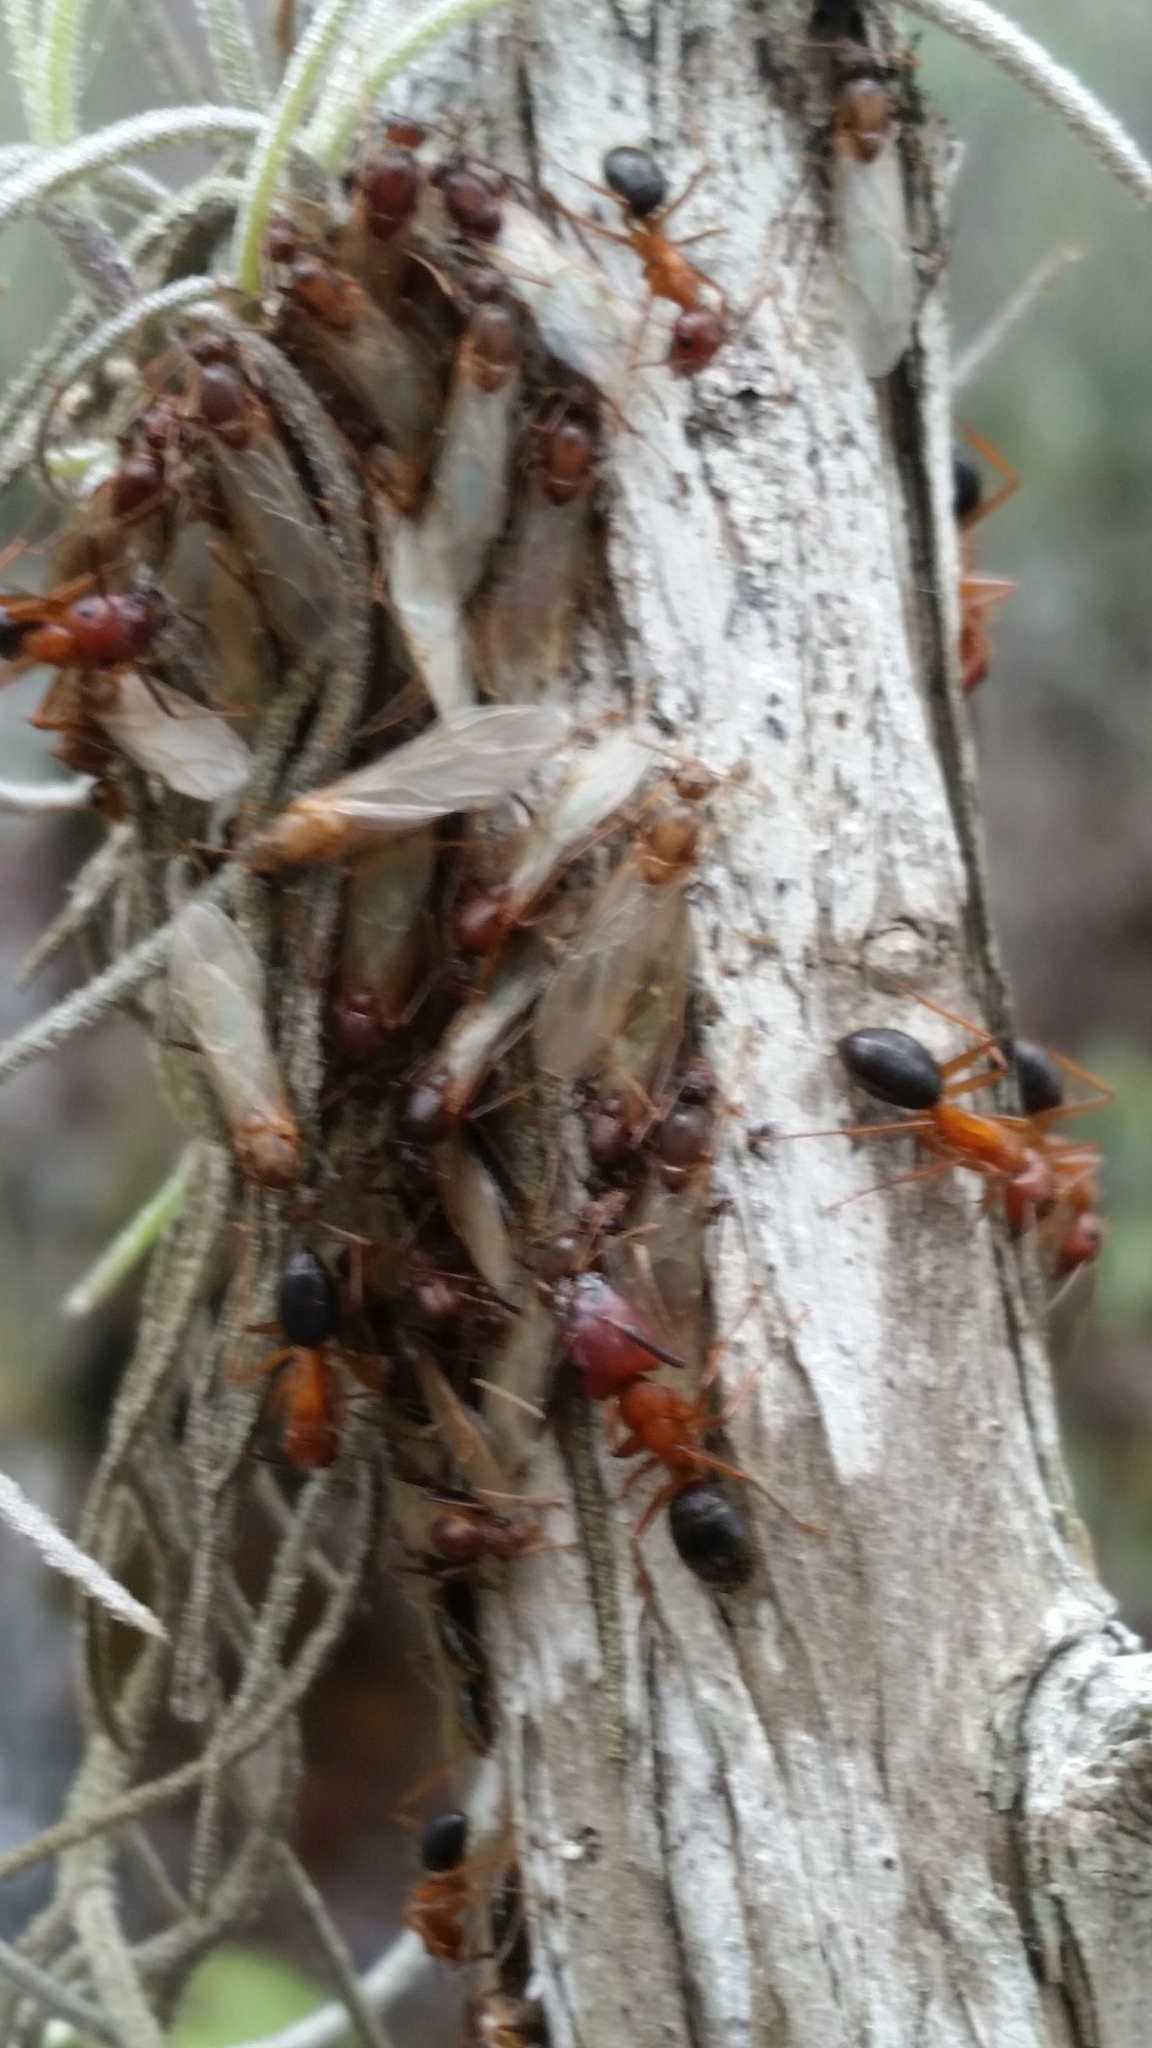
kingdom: Animalia
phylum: Arthropoda
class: Insecta
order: Hymenoptera
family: Formicidae
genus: Camponotus
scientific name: Camponotus floridanus
